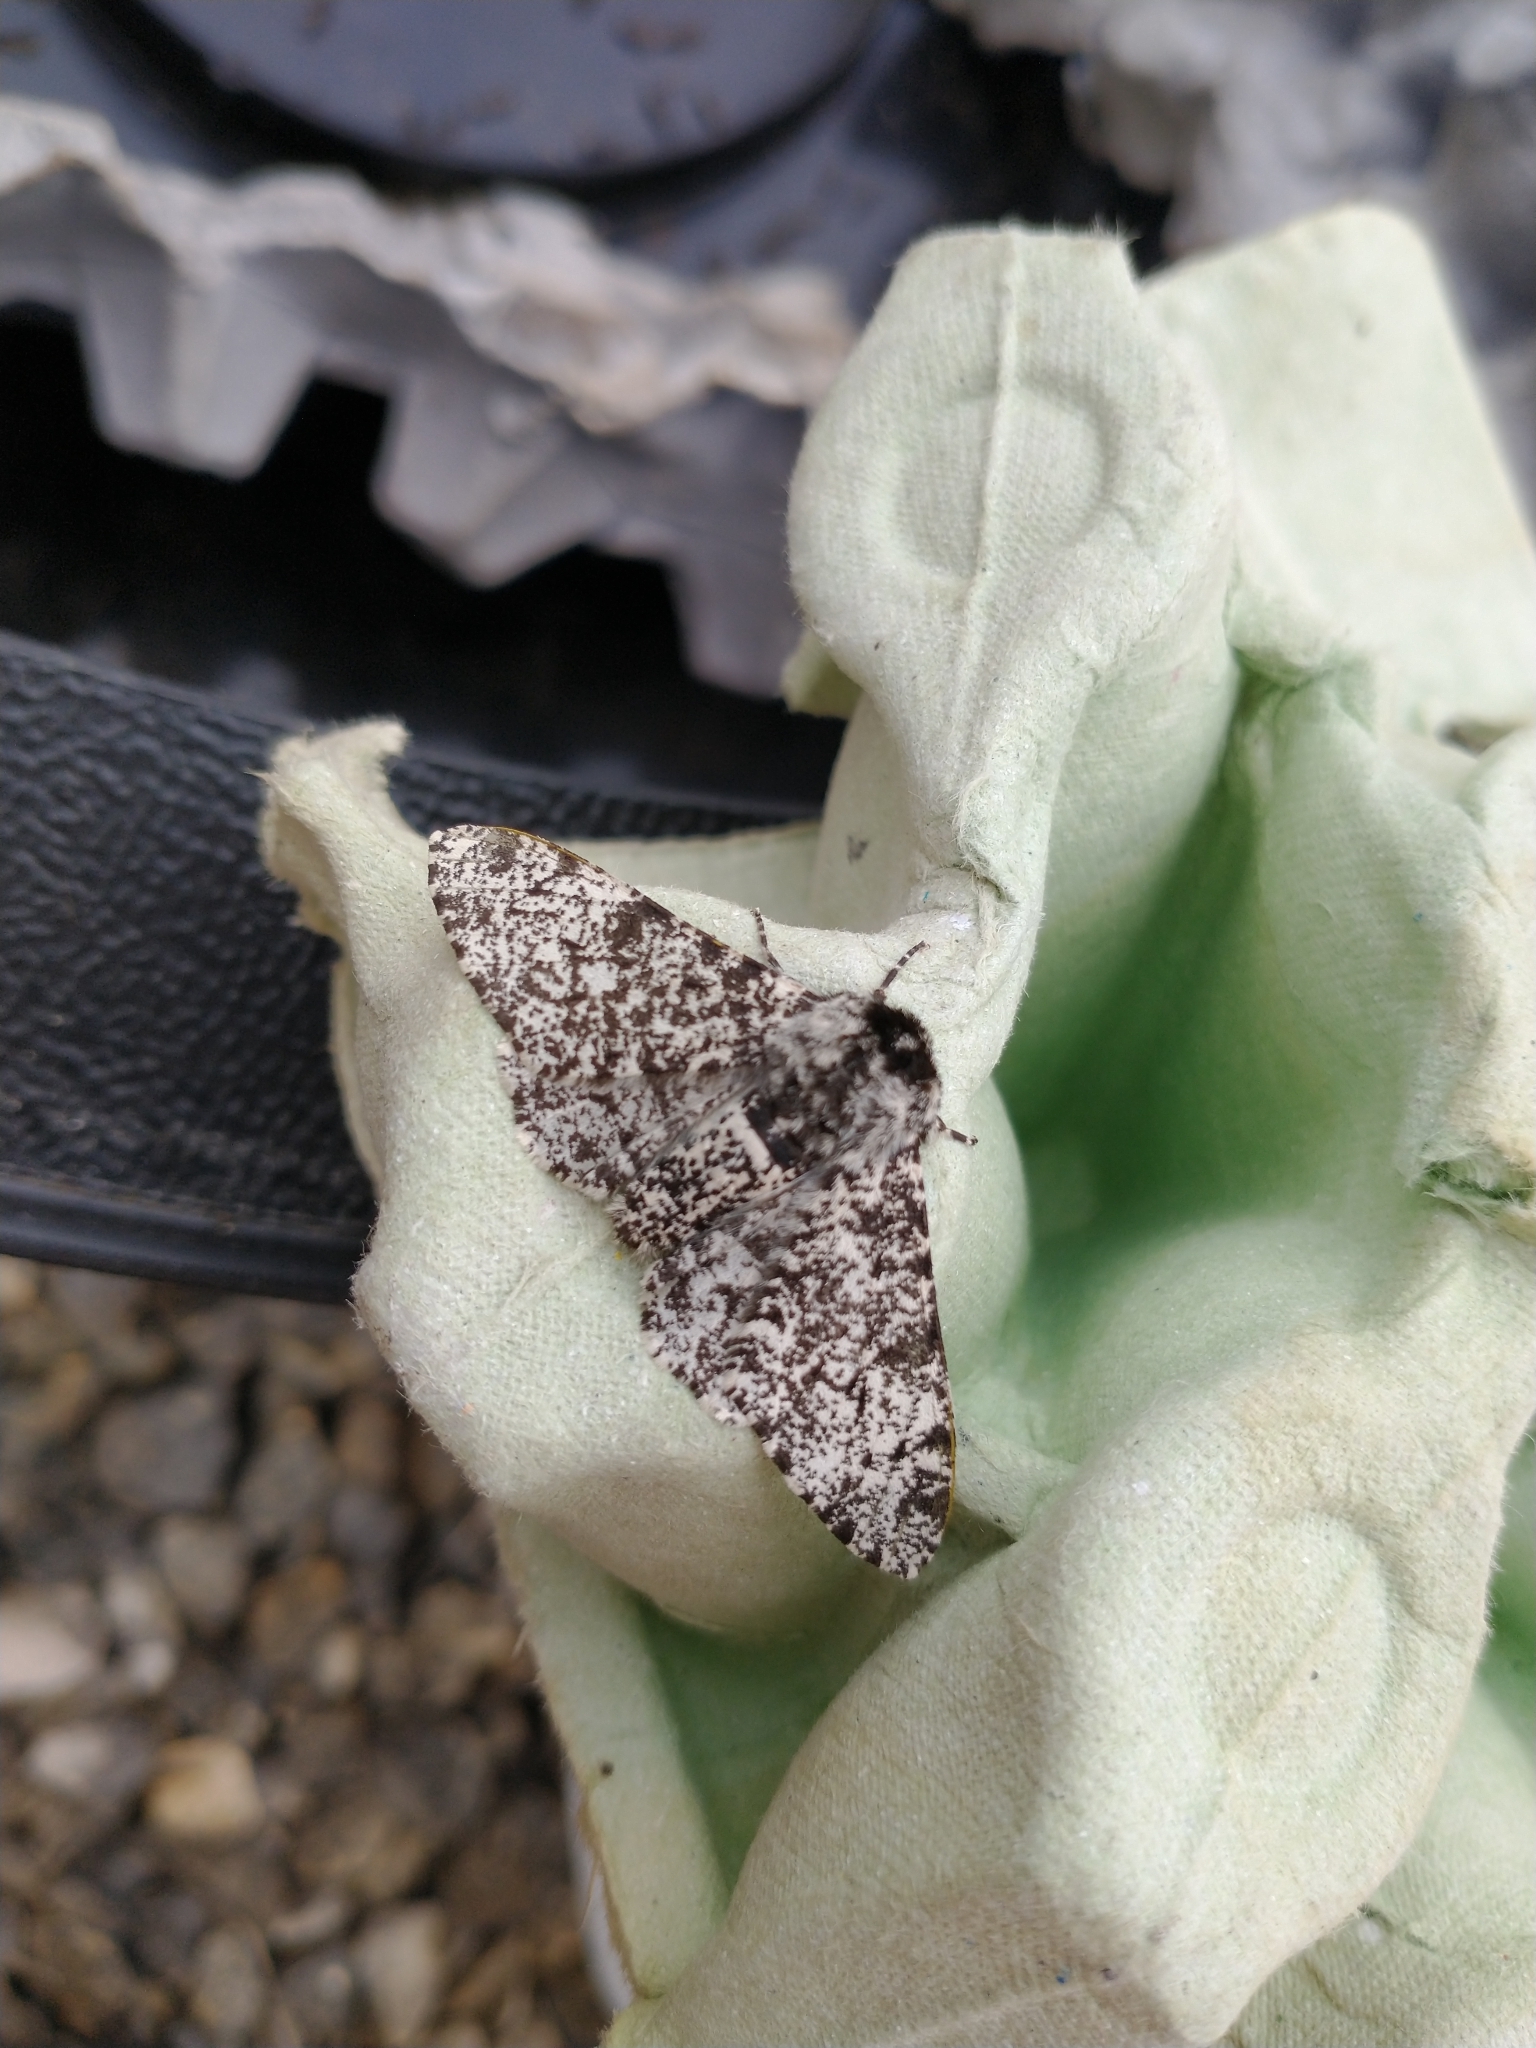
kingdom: Animalia
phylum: Arthropoda
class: Insecta
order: Lepidoptera
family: Geometridae
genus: Biston
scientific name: Biston betularia
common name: Peppered moth
